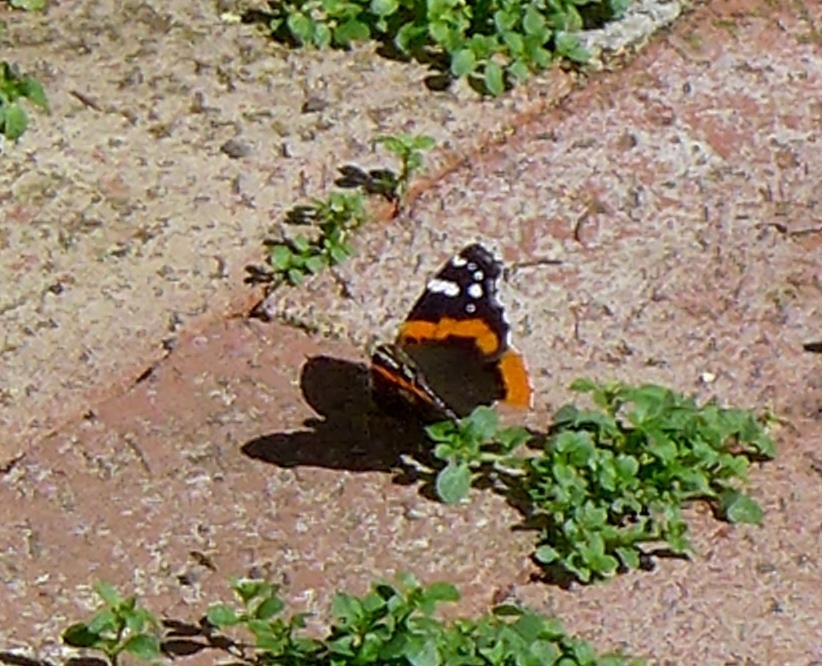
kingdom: Animalia
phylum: Arthropoda
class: Insecta
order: Lepidoptera
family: Nymphalidae
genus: Vanessa
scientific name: Vanessa atalanta
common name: Red admiral
